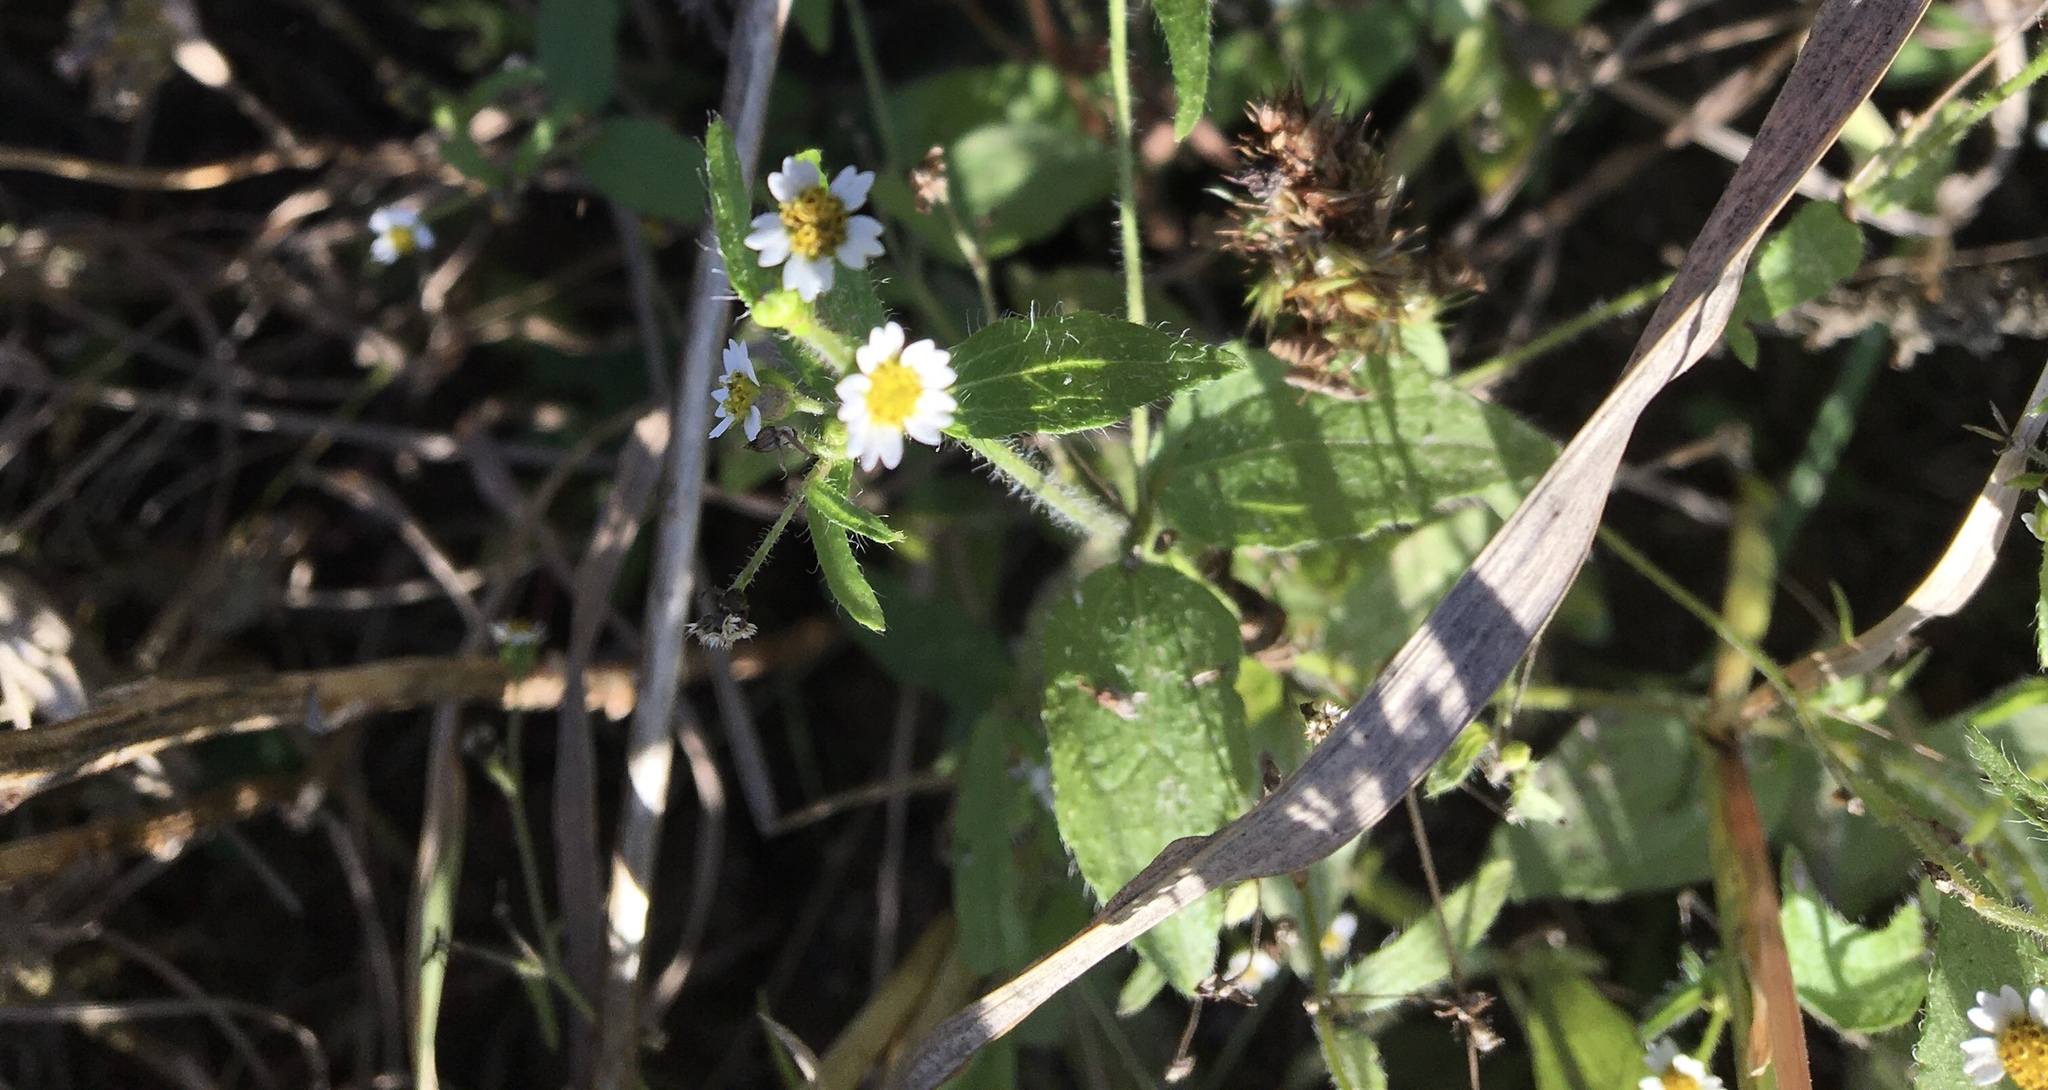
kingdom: Plantae
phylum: Tracheophyta
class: Magnoliopsida
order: Asterales
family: Asteraceae
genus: Galinsoga
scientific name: Galinsoga quadriradiata
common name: Shaggy soldier
